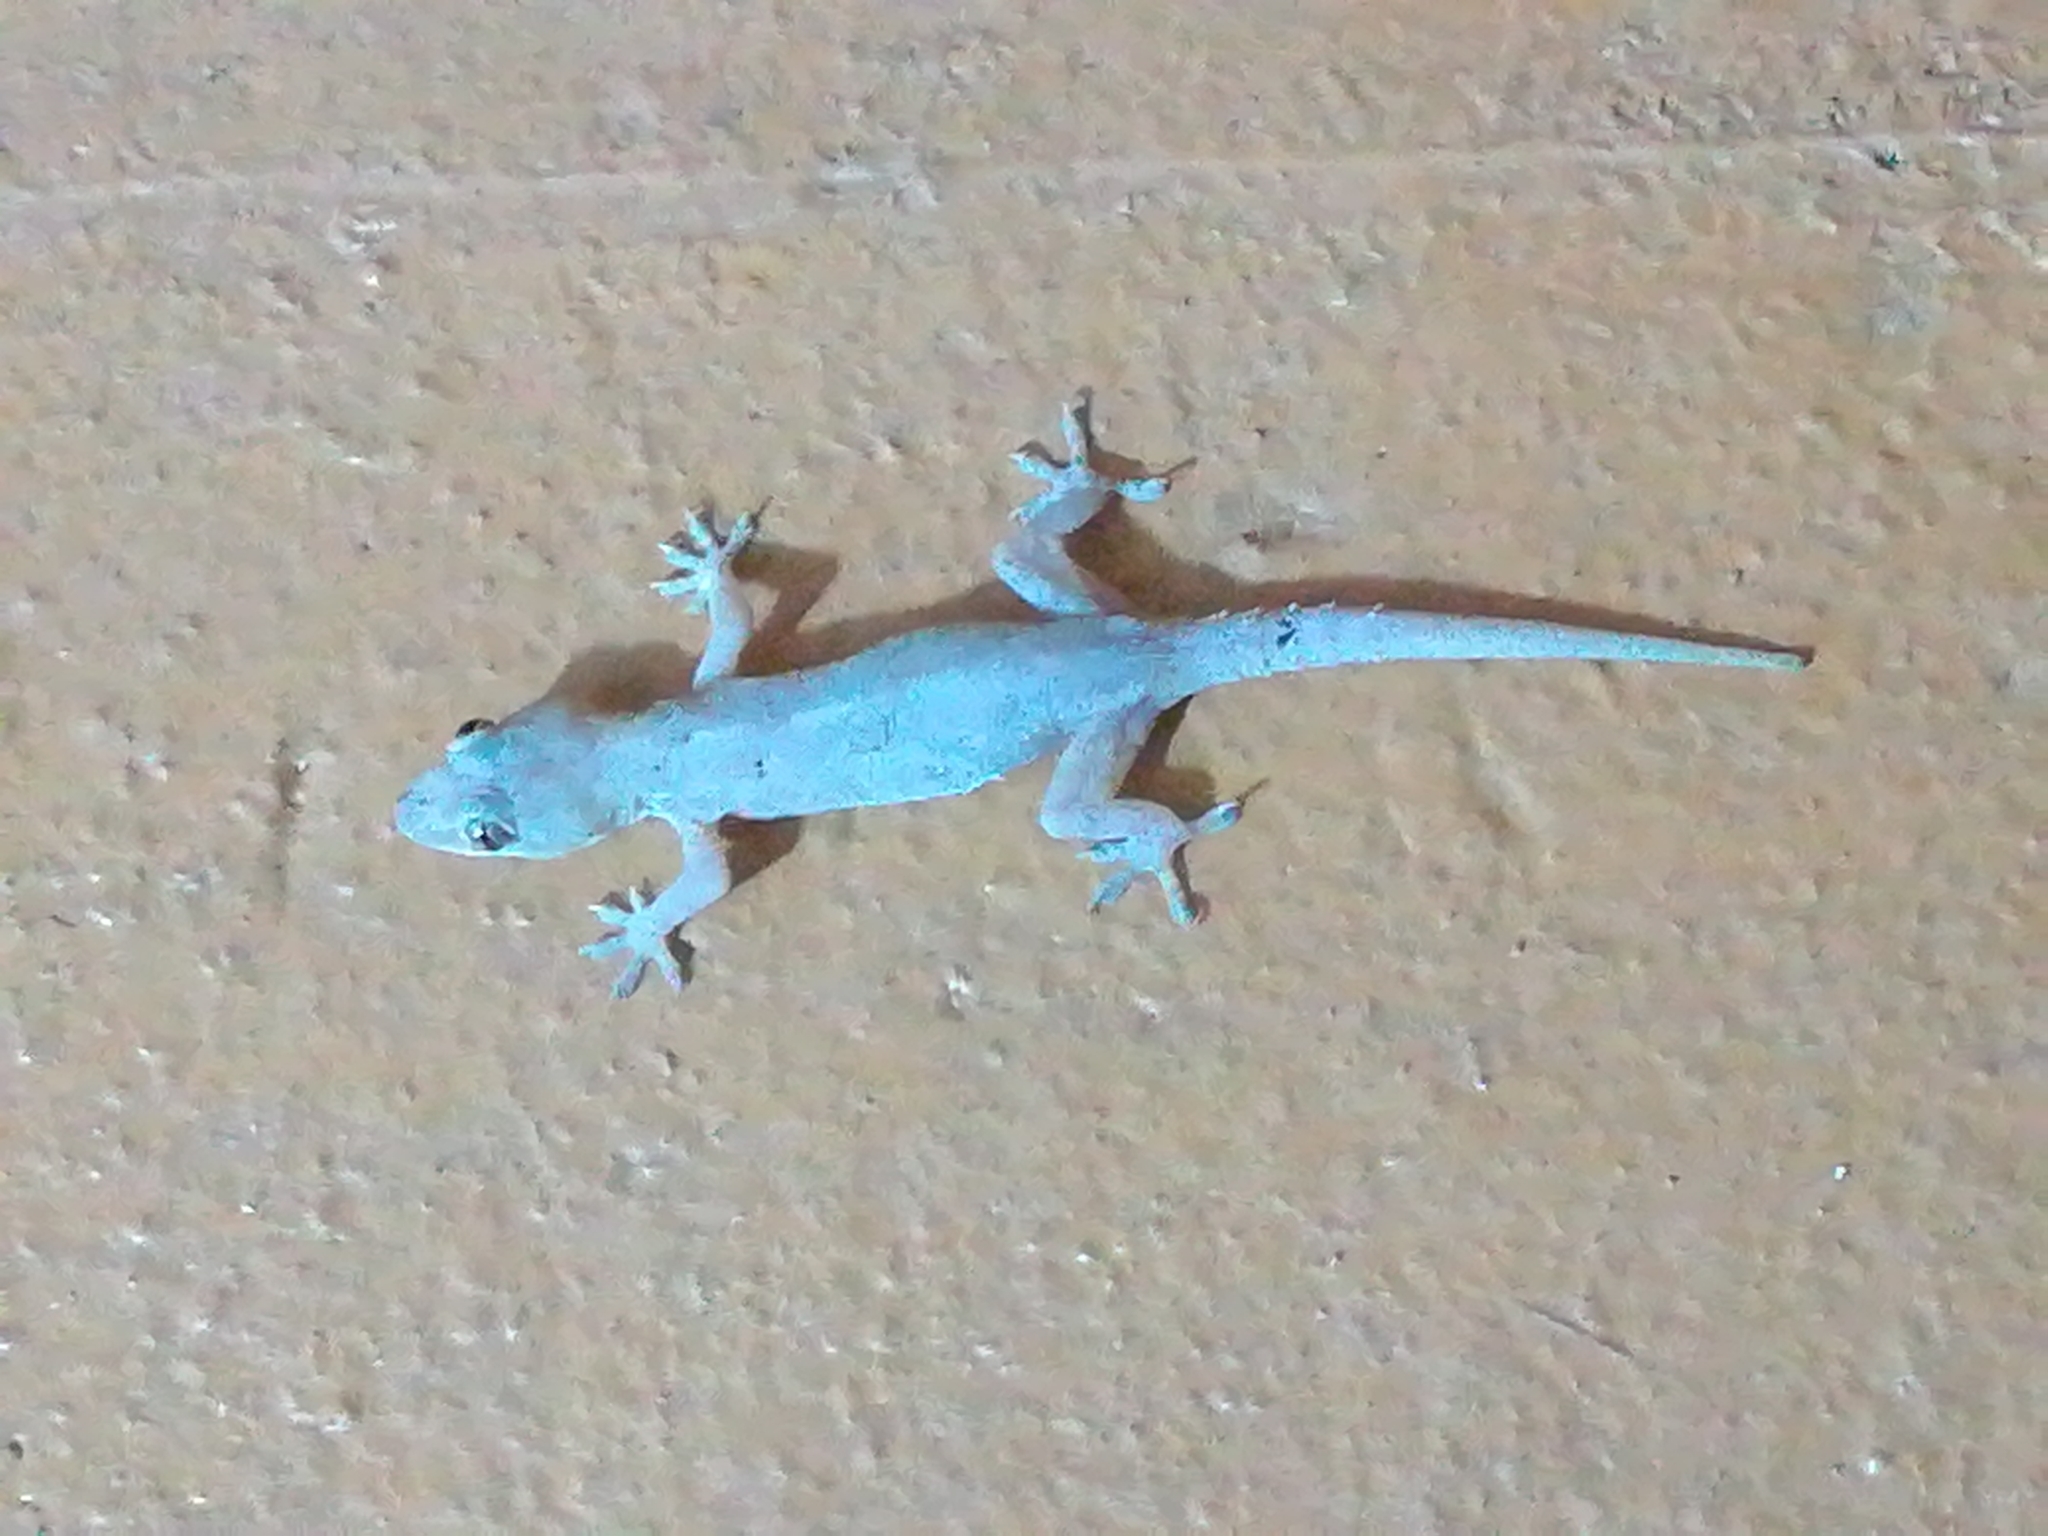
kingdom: Animalia
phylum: Chordata
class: Squamata
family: Gekkonidae
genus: Hemidactylus
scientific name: Hemidactylus mabouia
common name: House gecko
